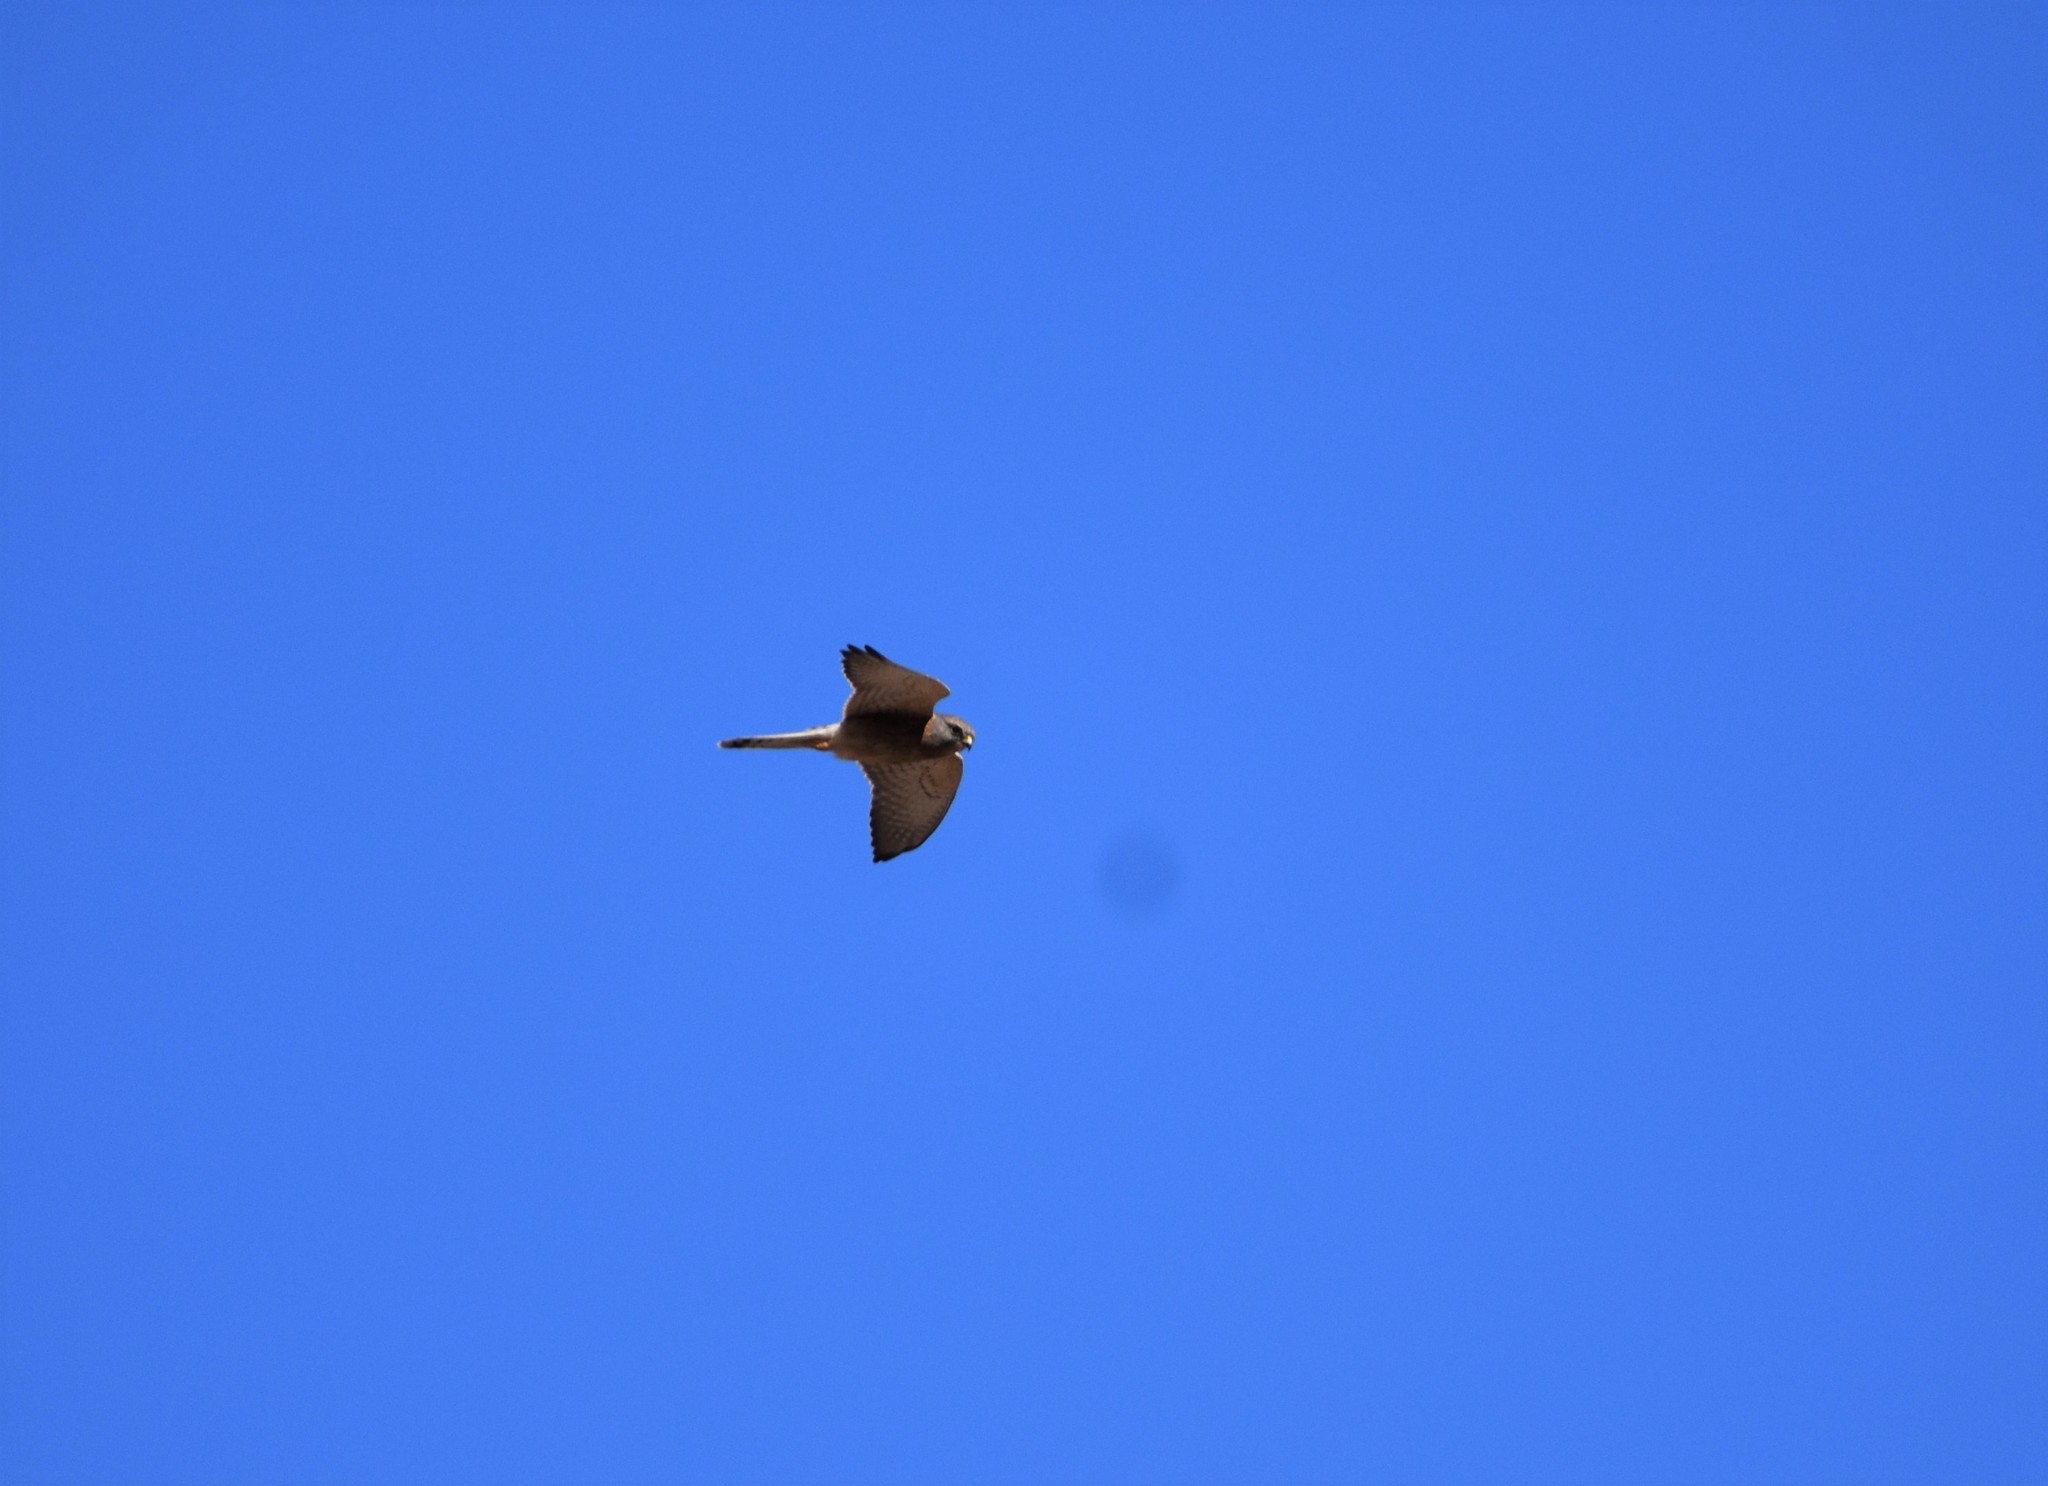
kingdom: Animalia
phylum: Chordata
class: Aves
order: Falconiformes
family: Falconidae
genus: Falco
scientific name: Falco rupicolus
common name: Rock kestrel
